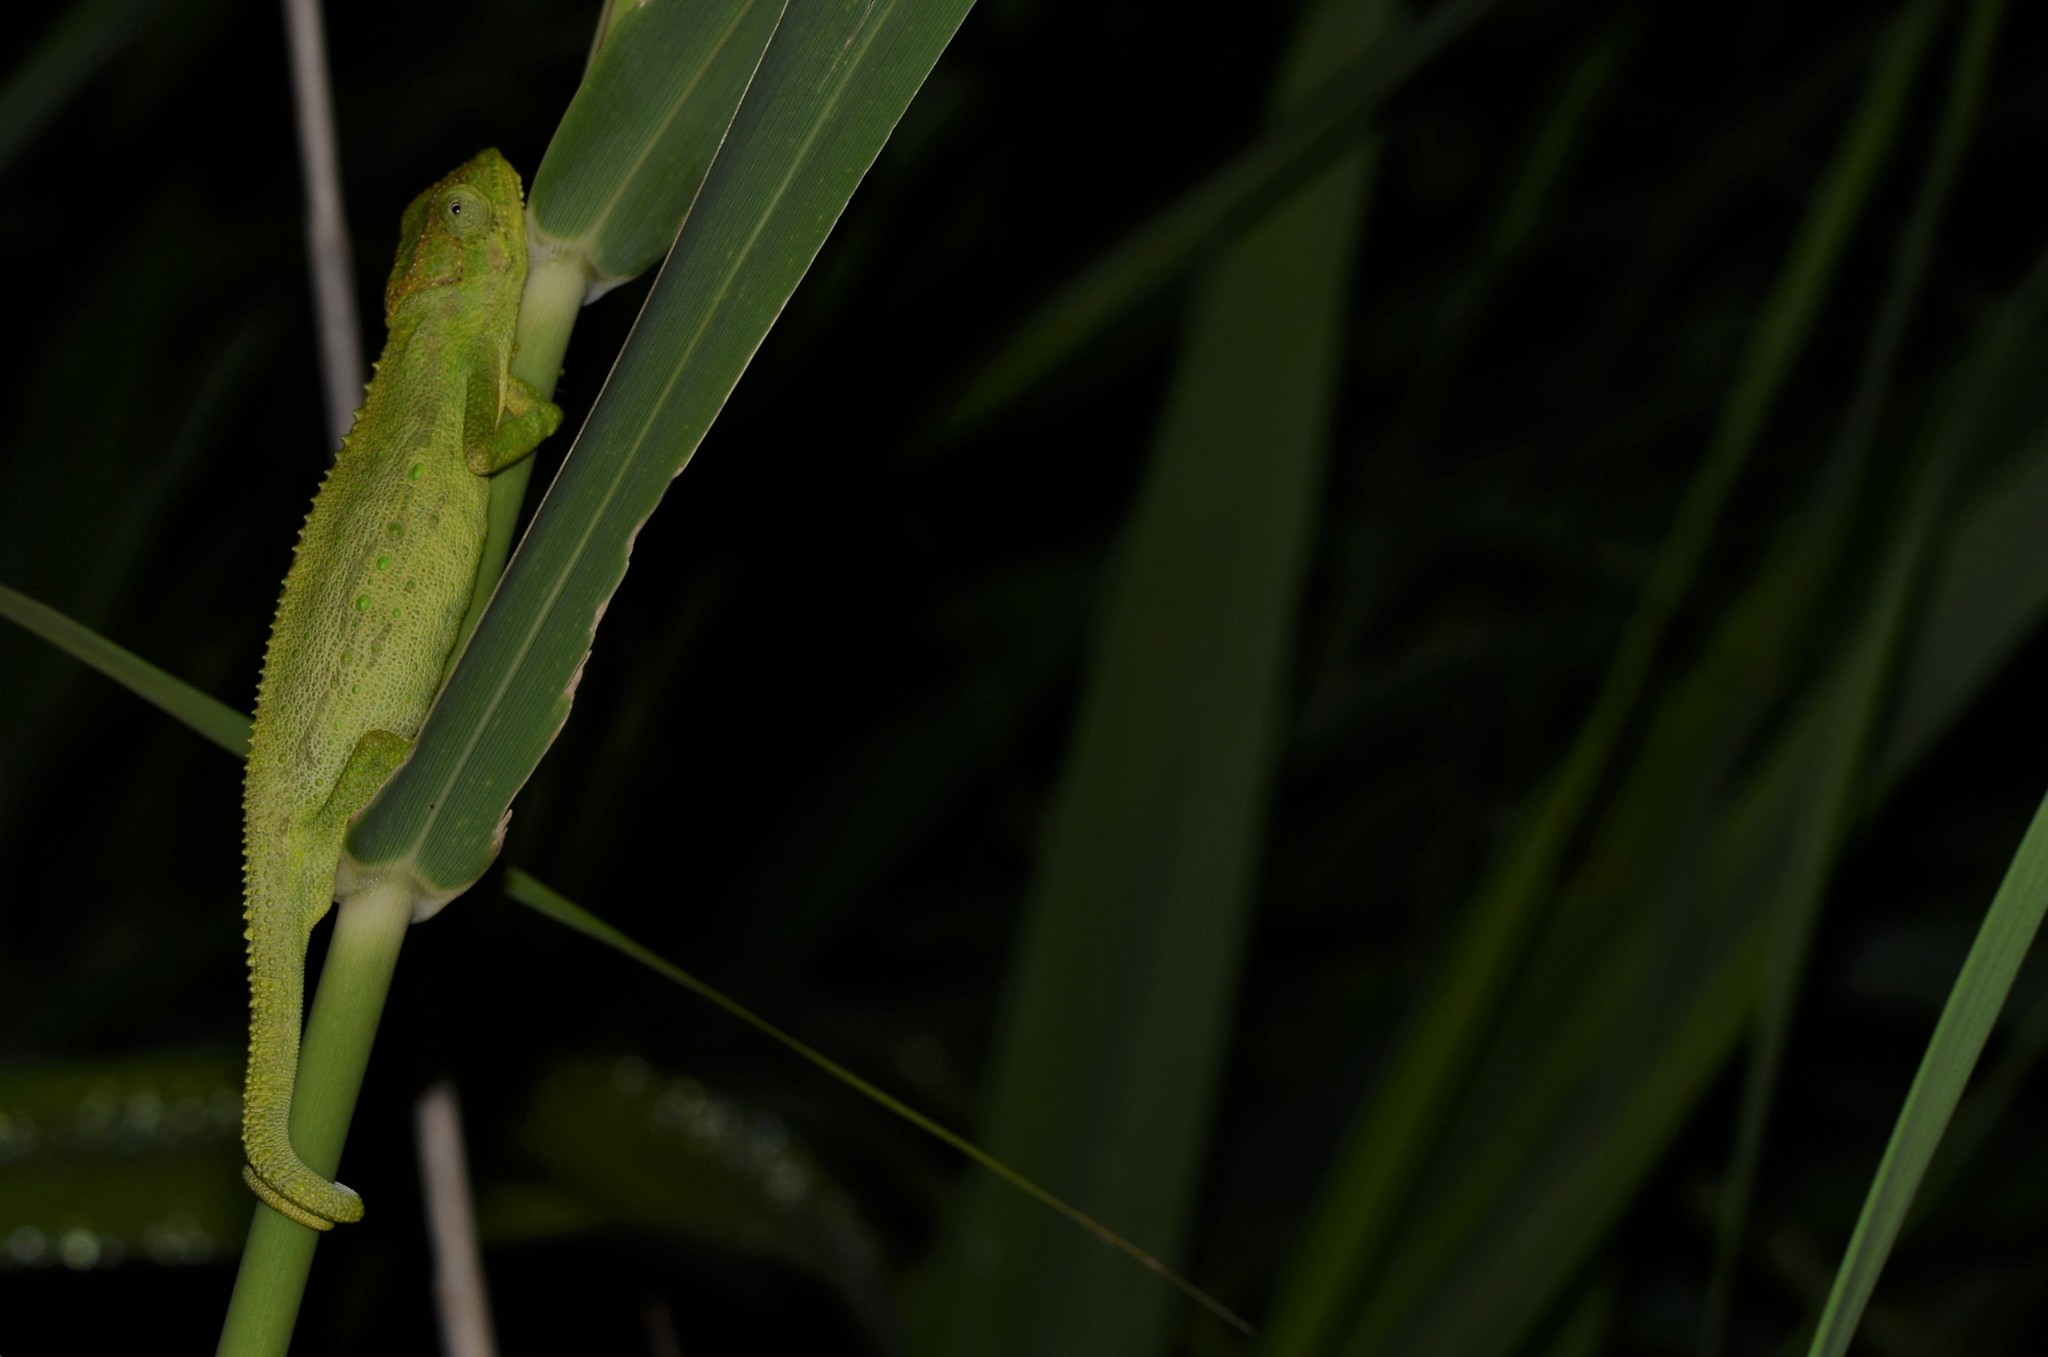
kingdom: Animalia
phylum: Chordata
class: Squamata
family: Chamaeleonidae
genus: Bradypodion
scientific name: Bradypodion pumilum
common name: Cape dwarf chameleon
